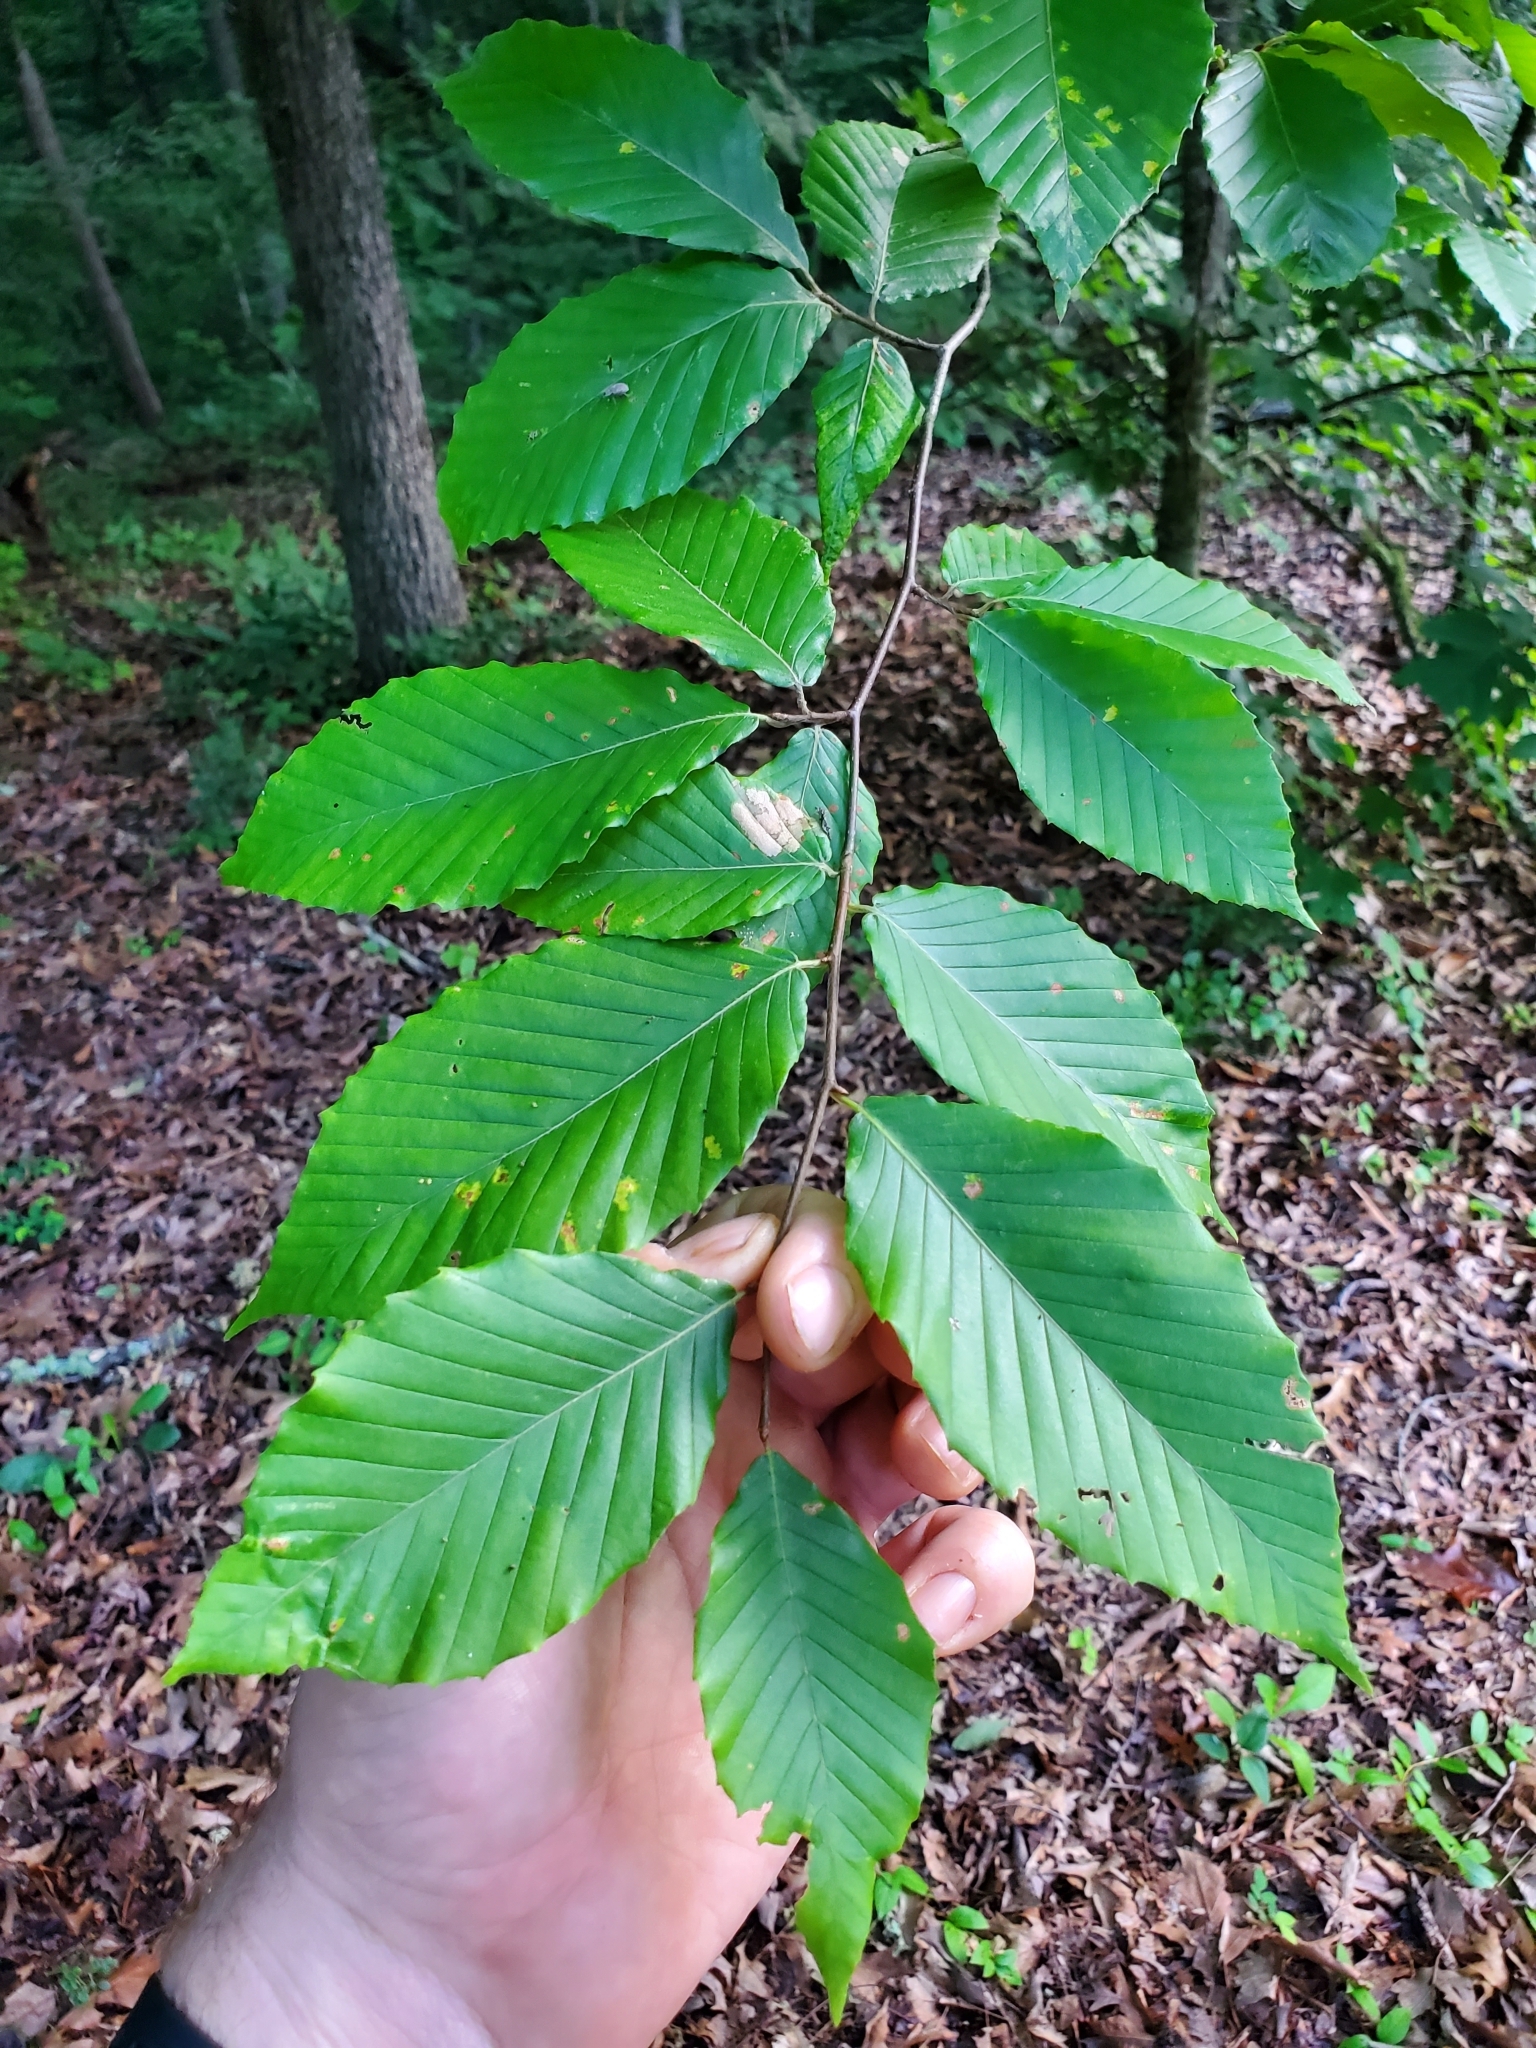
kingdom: Plantae
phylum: Tracheophyta
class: Magnoliopsida
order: Fagales
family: Fagaceae
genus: Fagus
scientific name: Fagus grandifolia
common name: American beech
